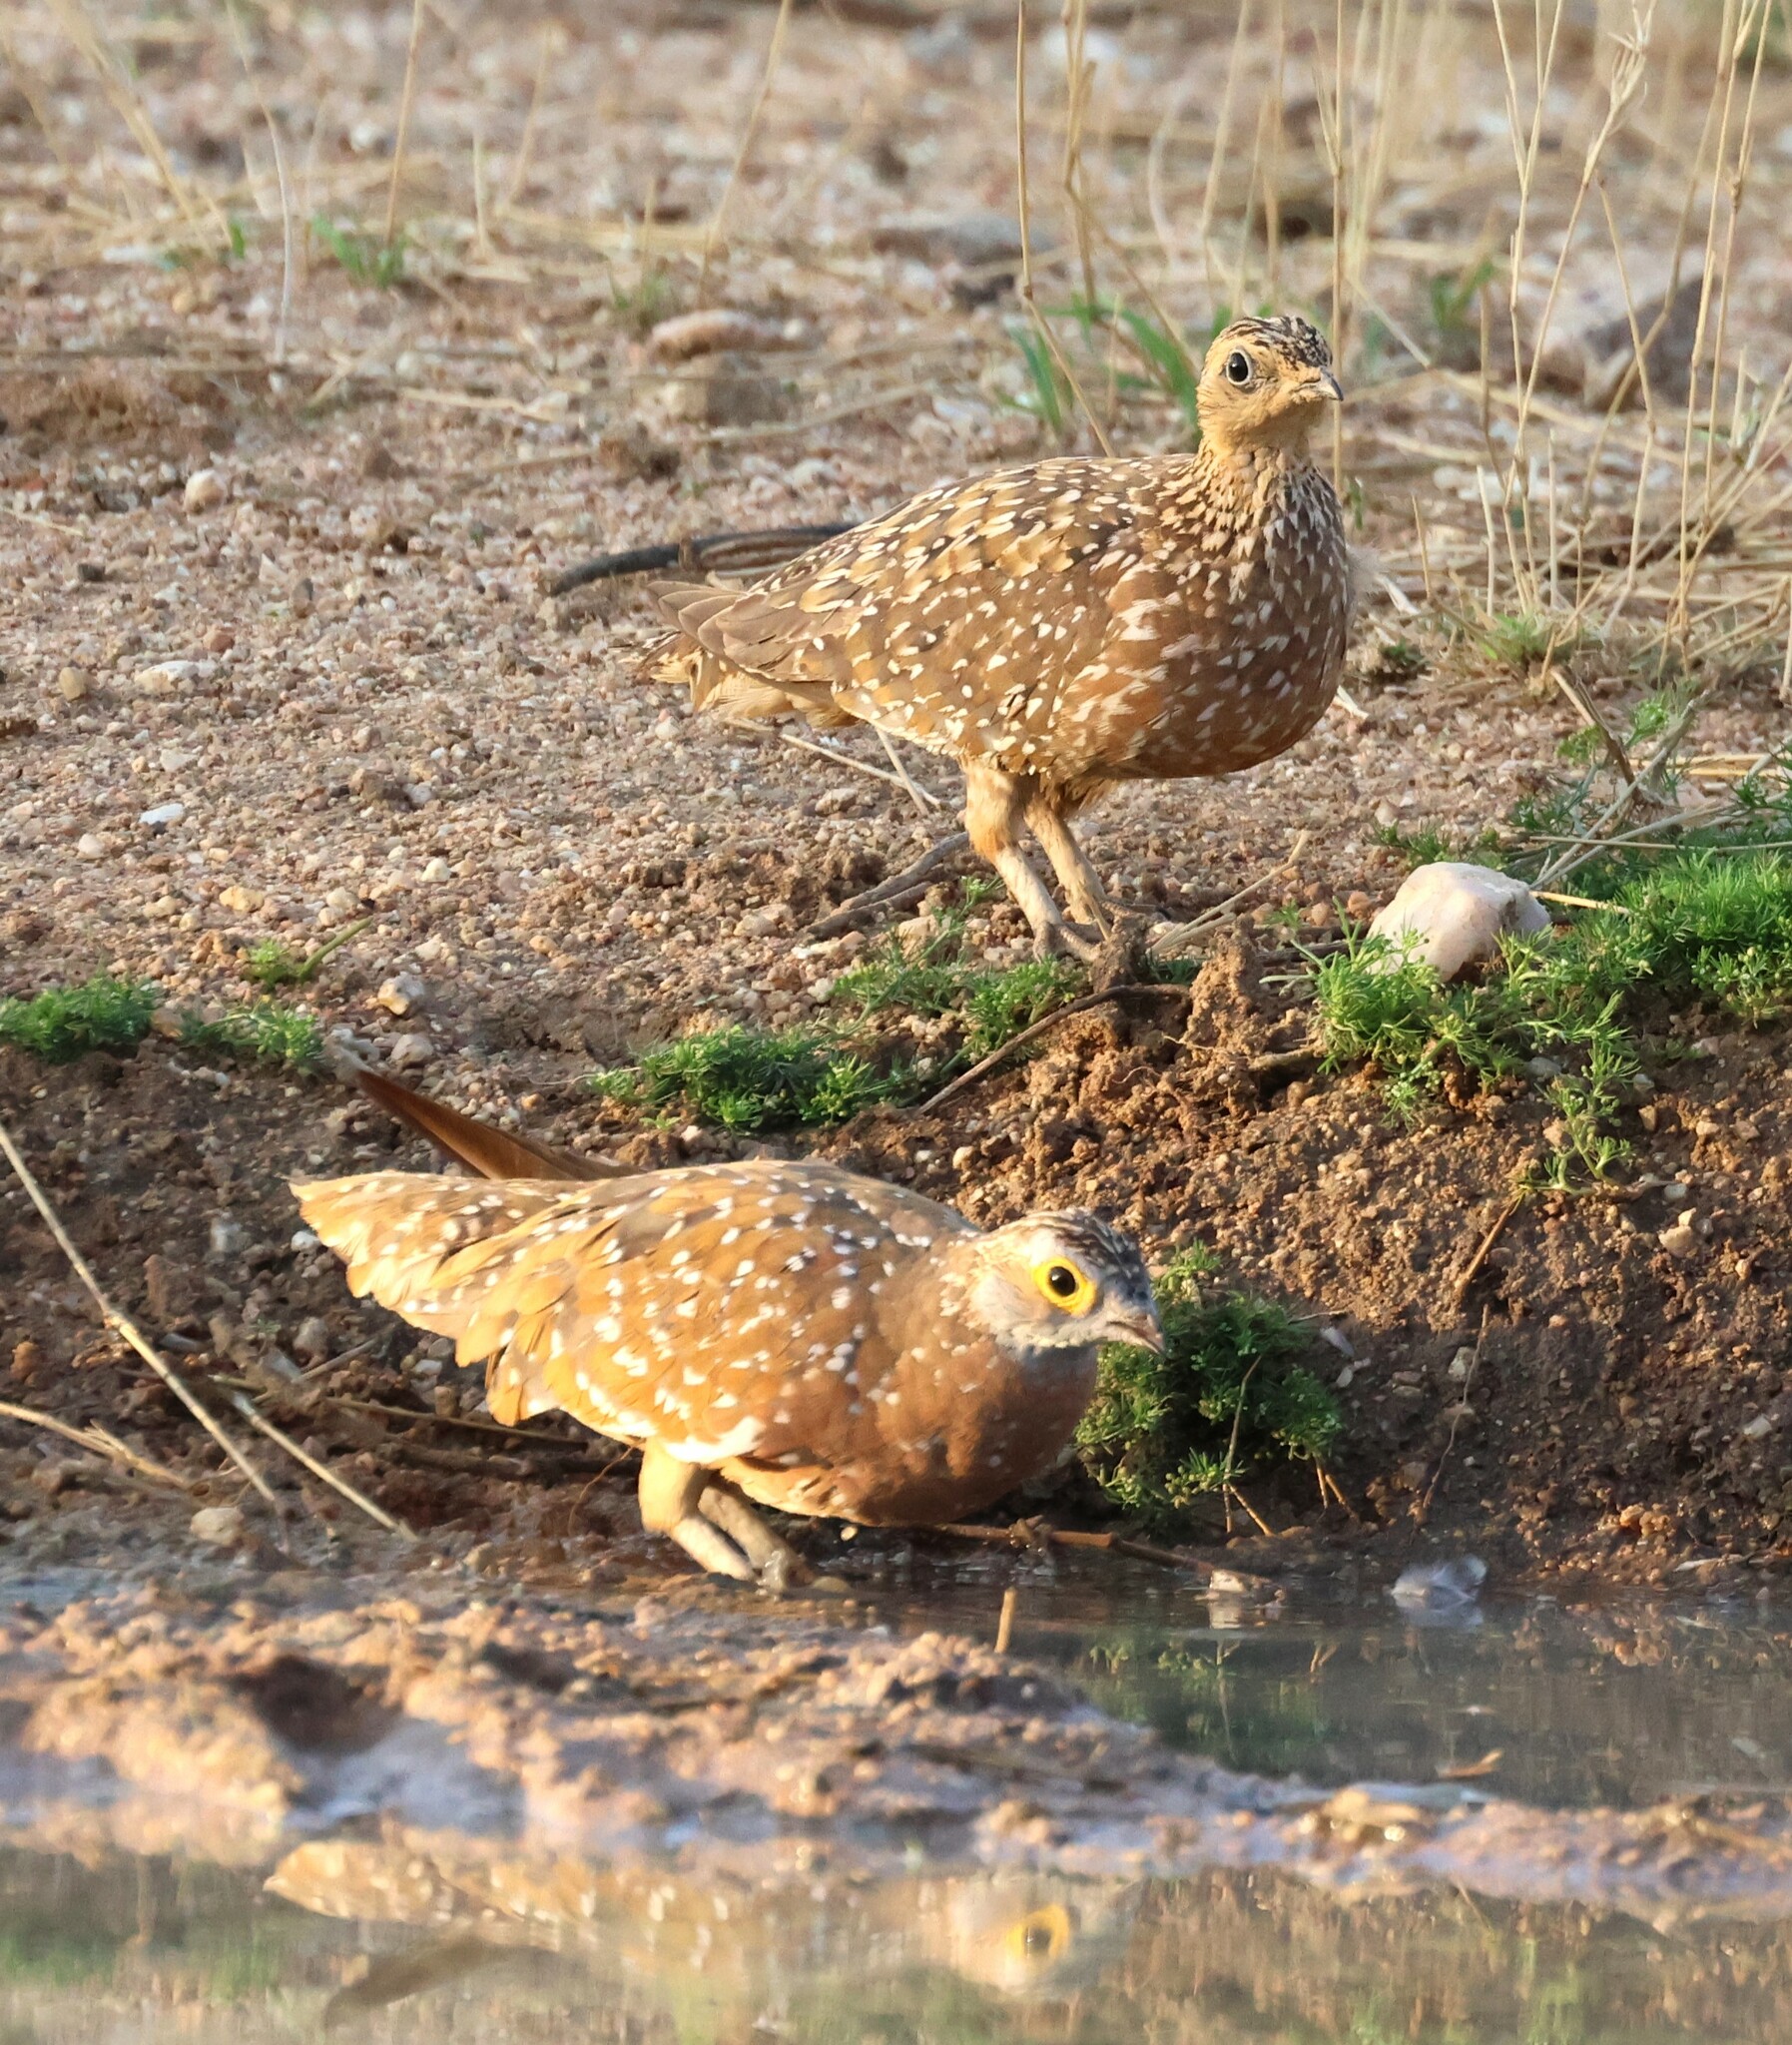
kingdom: Animalia
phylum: Chordata
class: Aves
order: Pteroclidiformes
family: Pteroclididae
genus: Pterocles
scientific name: Pterocles burchelli
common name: Burchell's sandgrouse
